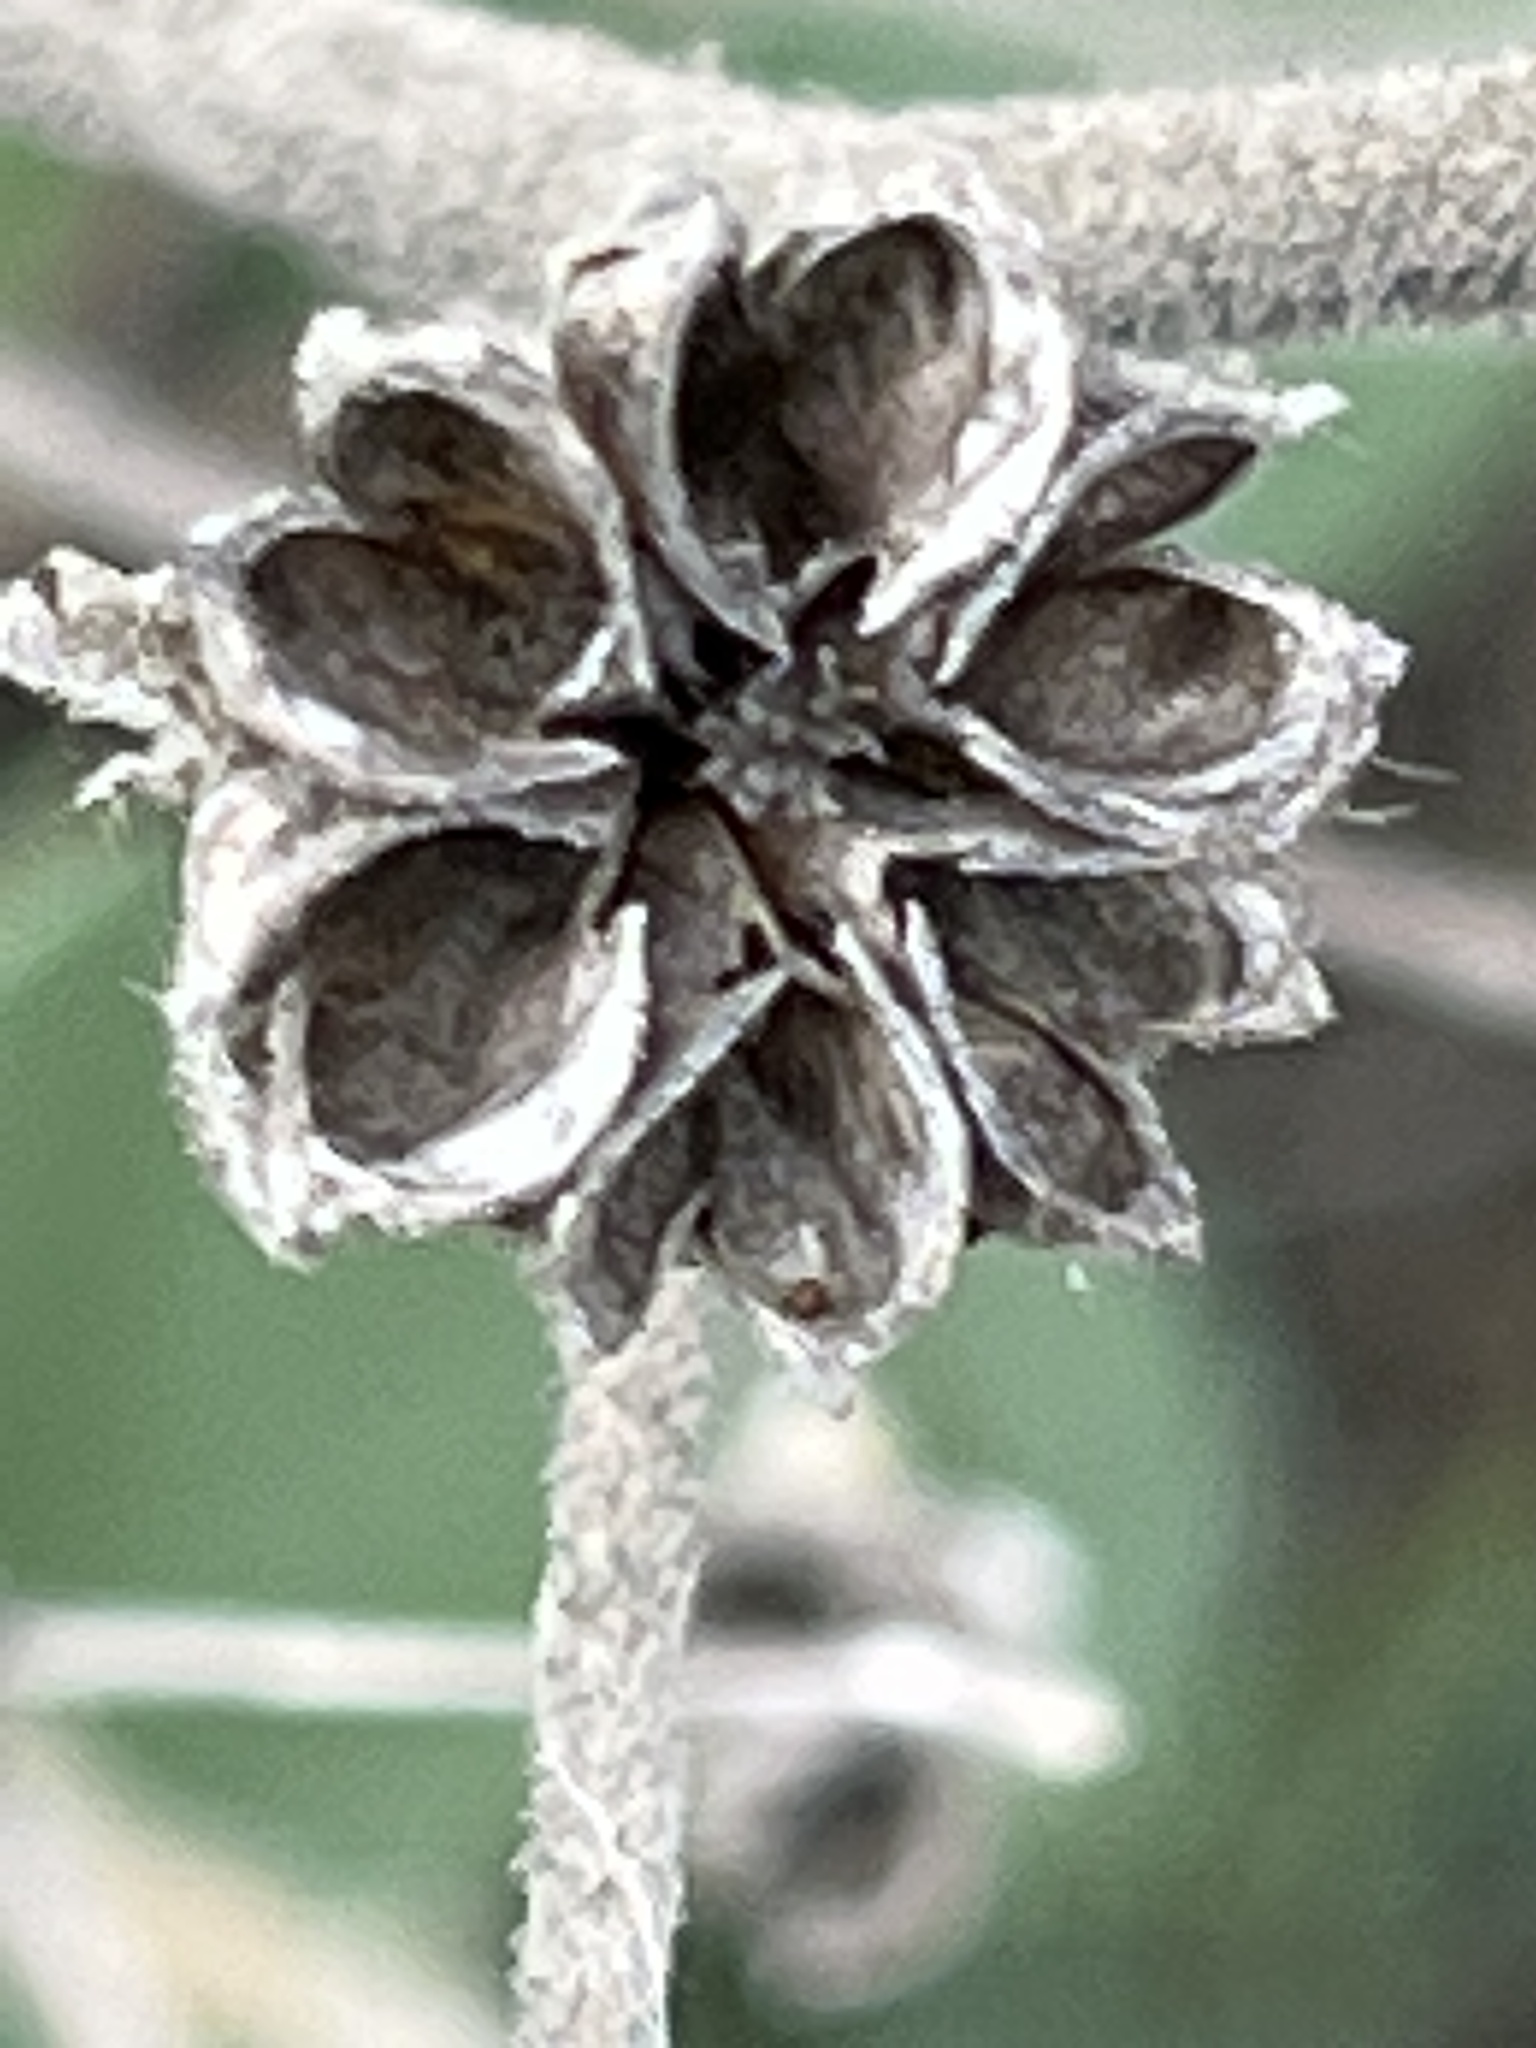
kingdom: Plantae
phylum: Tracheophyta
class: Magnoliopsida
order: Malvales
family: Malvaceae
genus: Allowissadula
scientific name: Allowissadula holosericea
